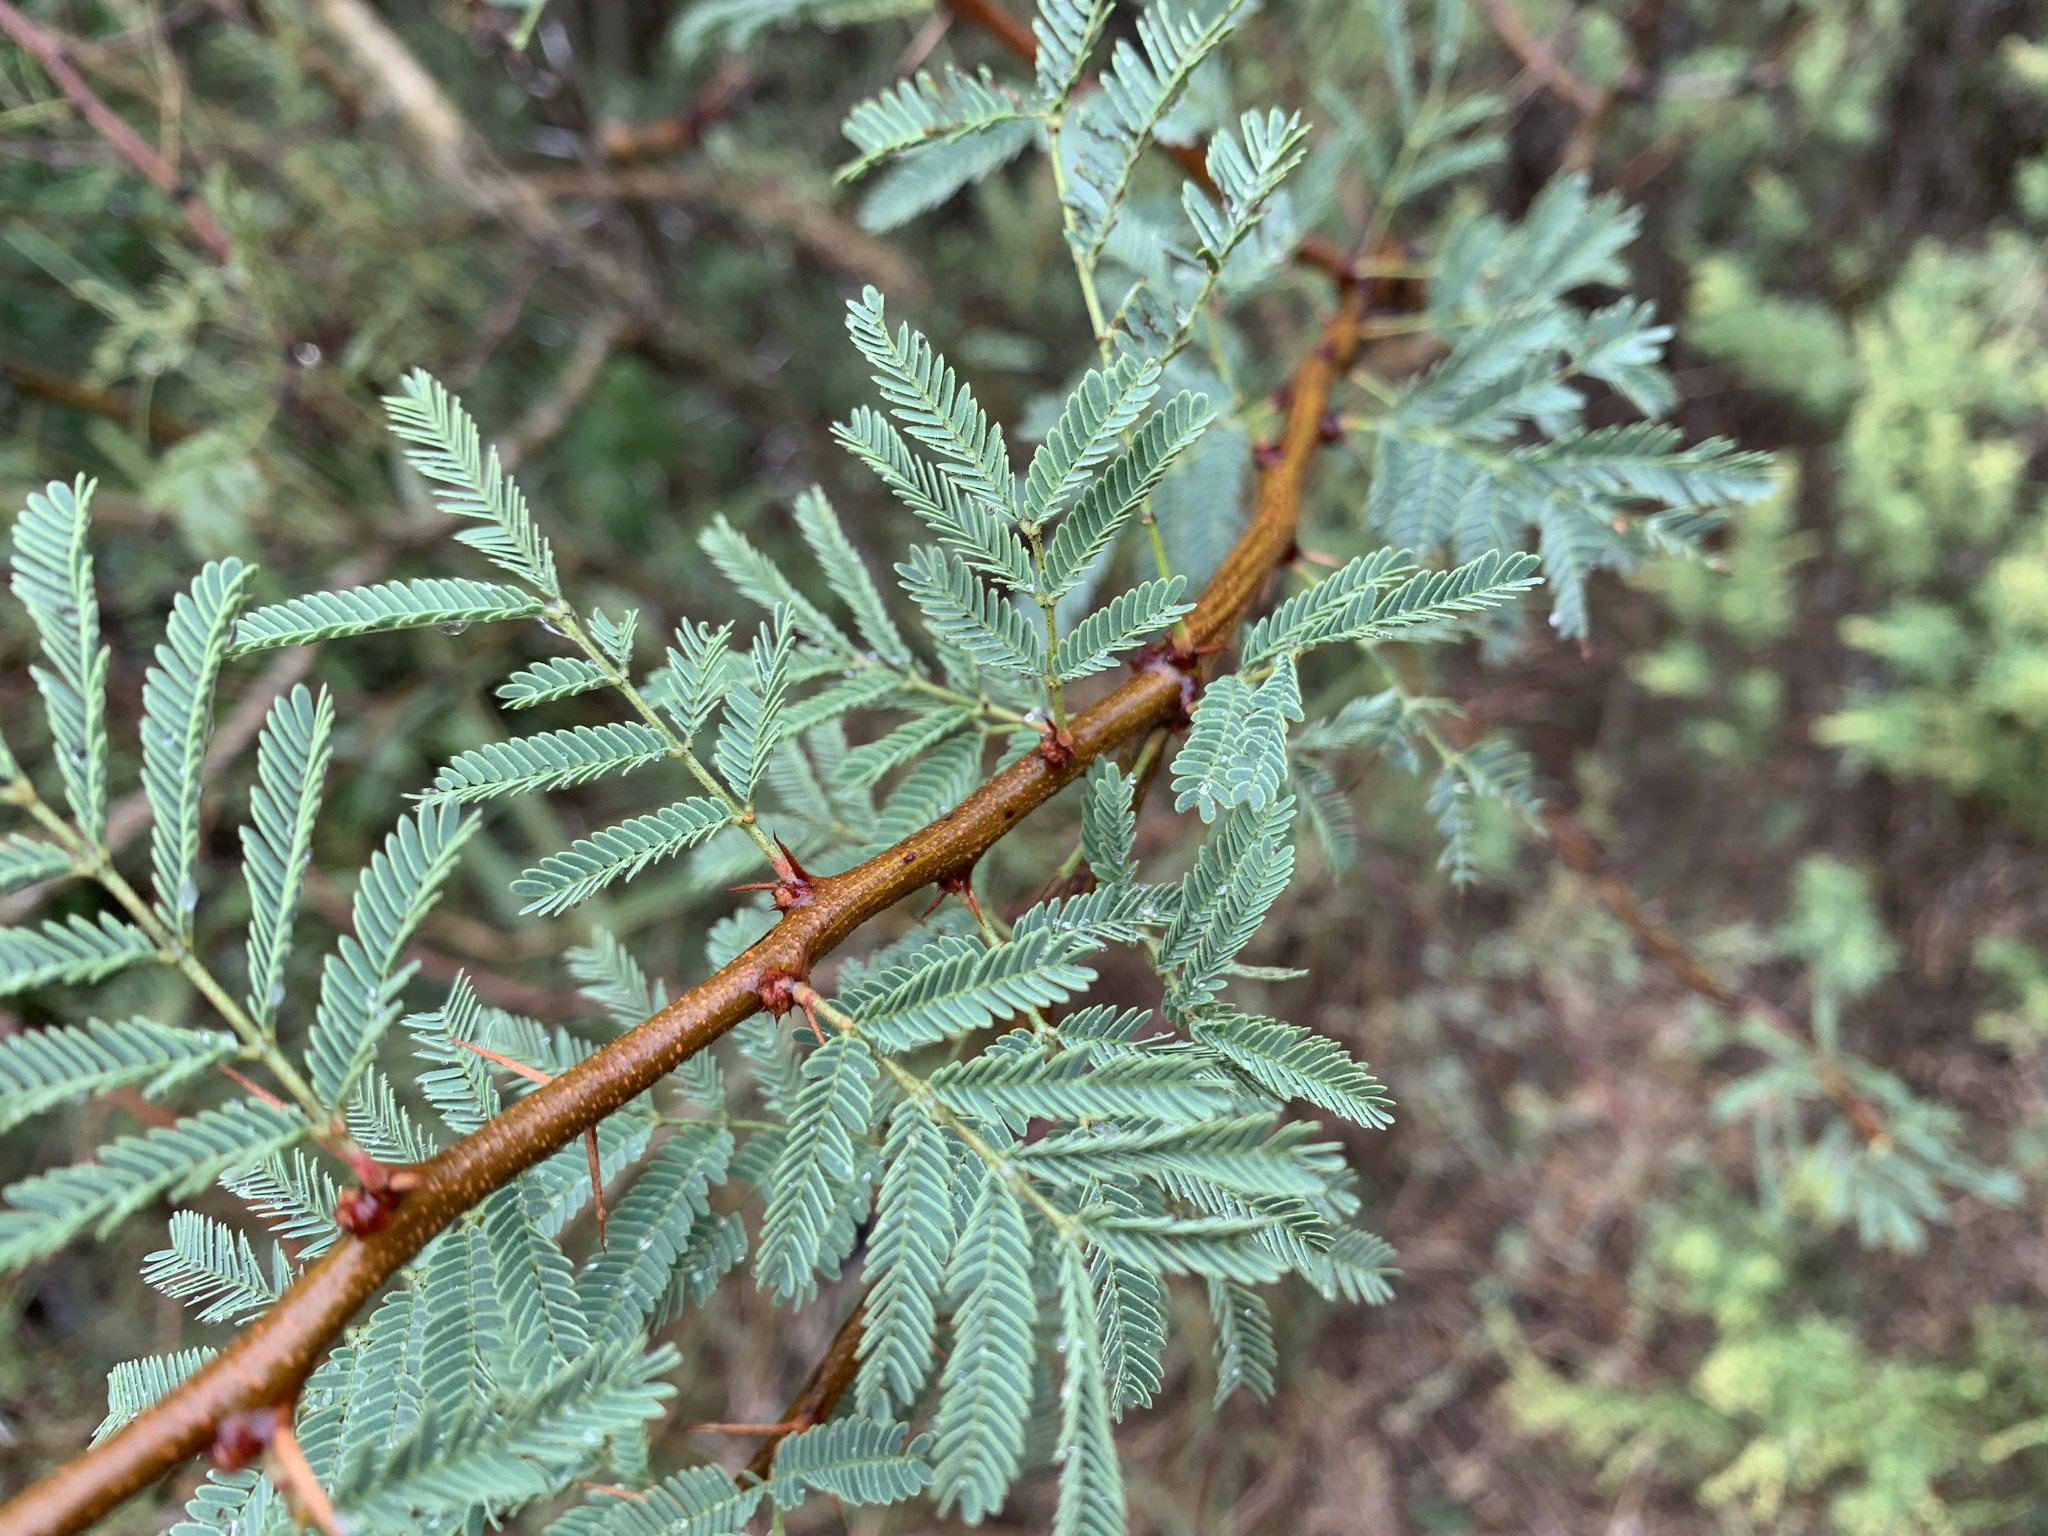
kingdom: Plantae
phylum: Tracheophyta
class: Magnoliopsida
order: Fabales
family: Fabaceae
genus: Vachellia
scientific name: Vachellia schaffneri
